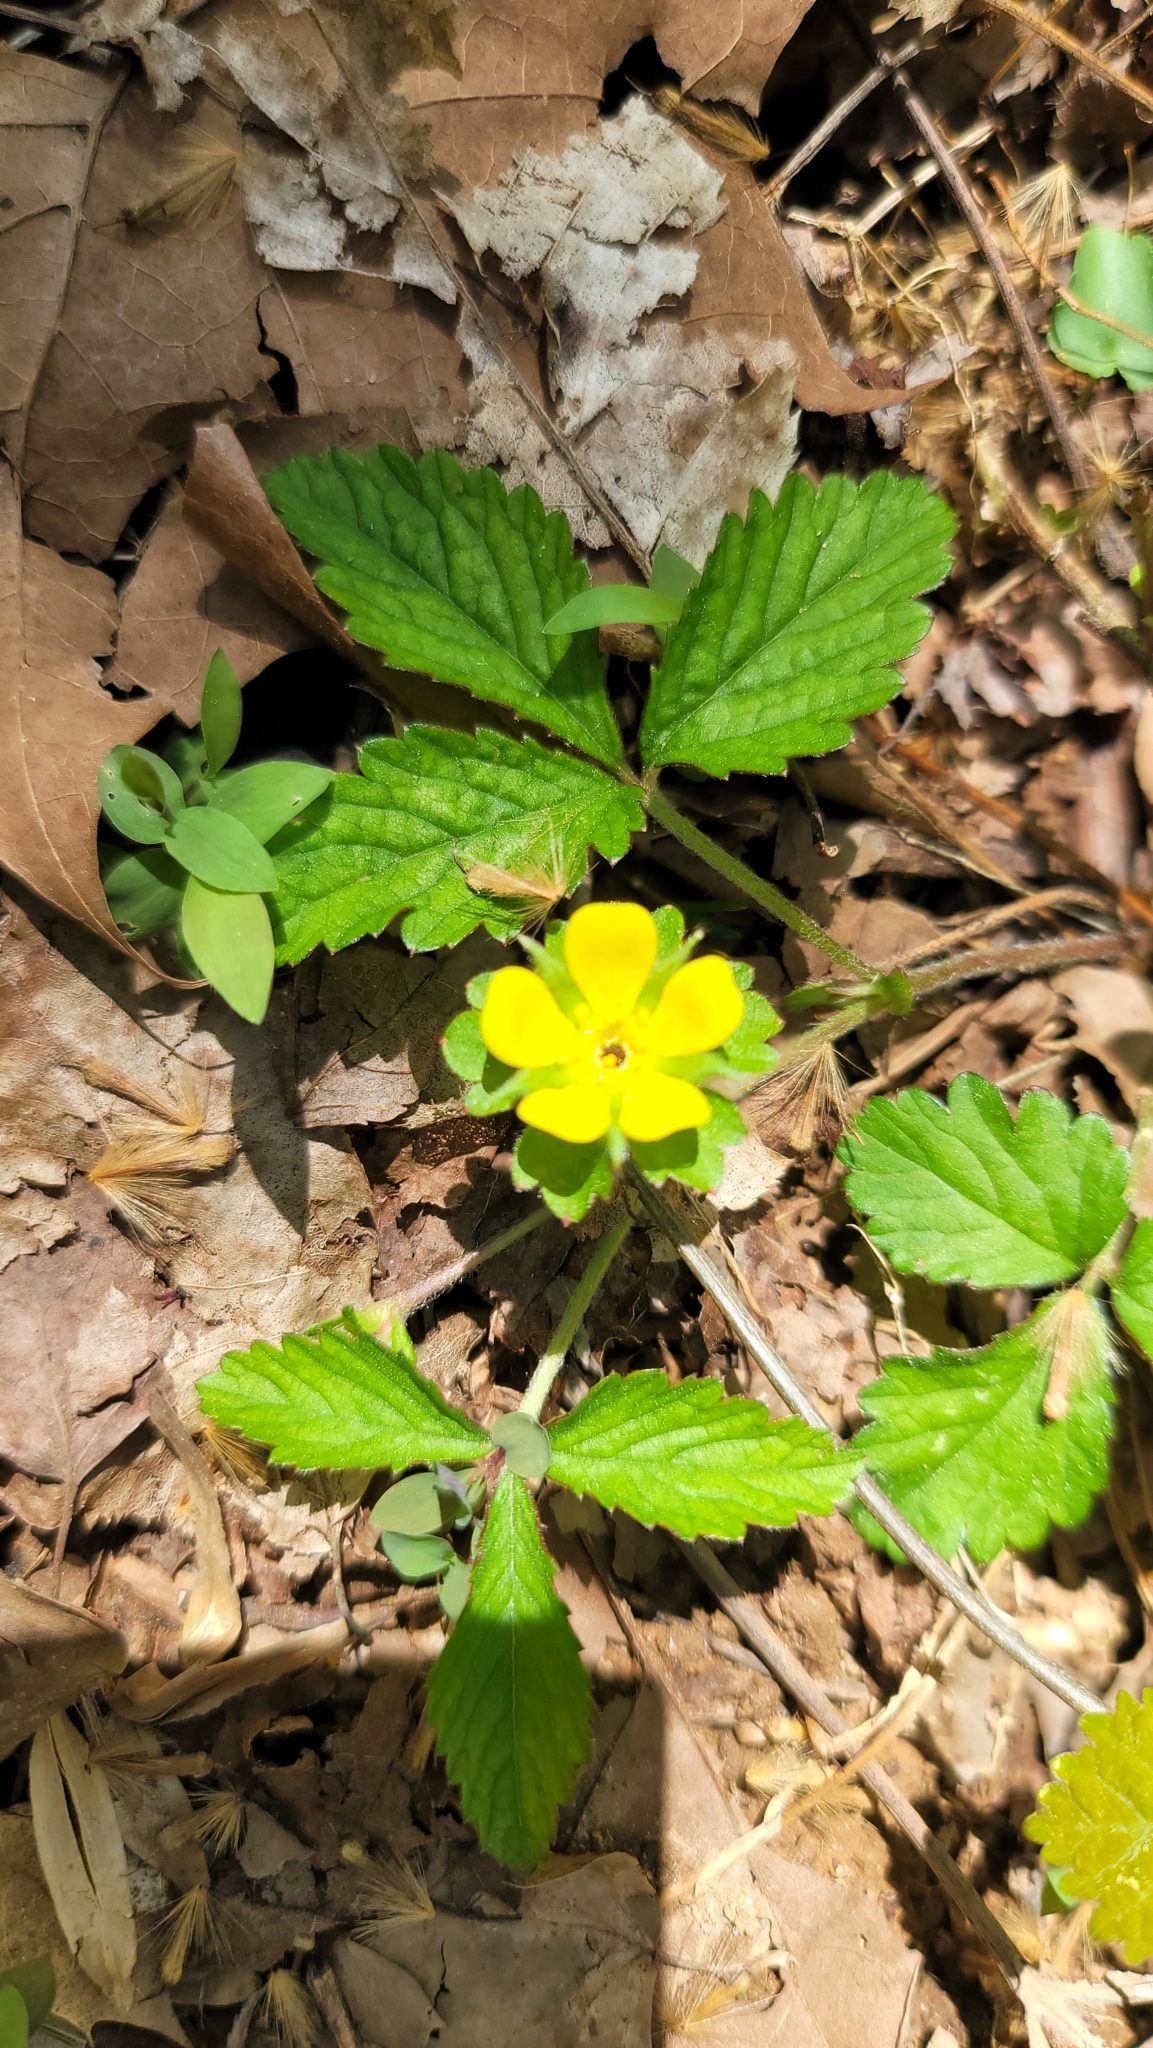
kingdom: Plantae
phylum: Tracheophyta
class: Magnoliopsida
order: Rosales
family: Rosaceae
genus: Potentilla
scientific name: Potentilla indica
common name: Yellow-flowered strawberry
